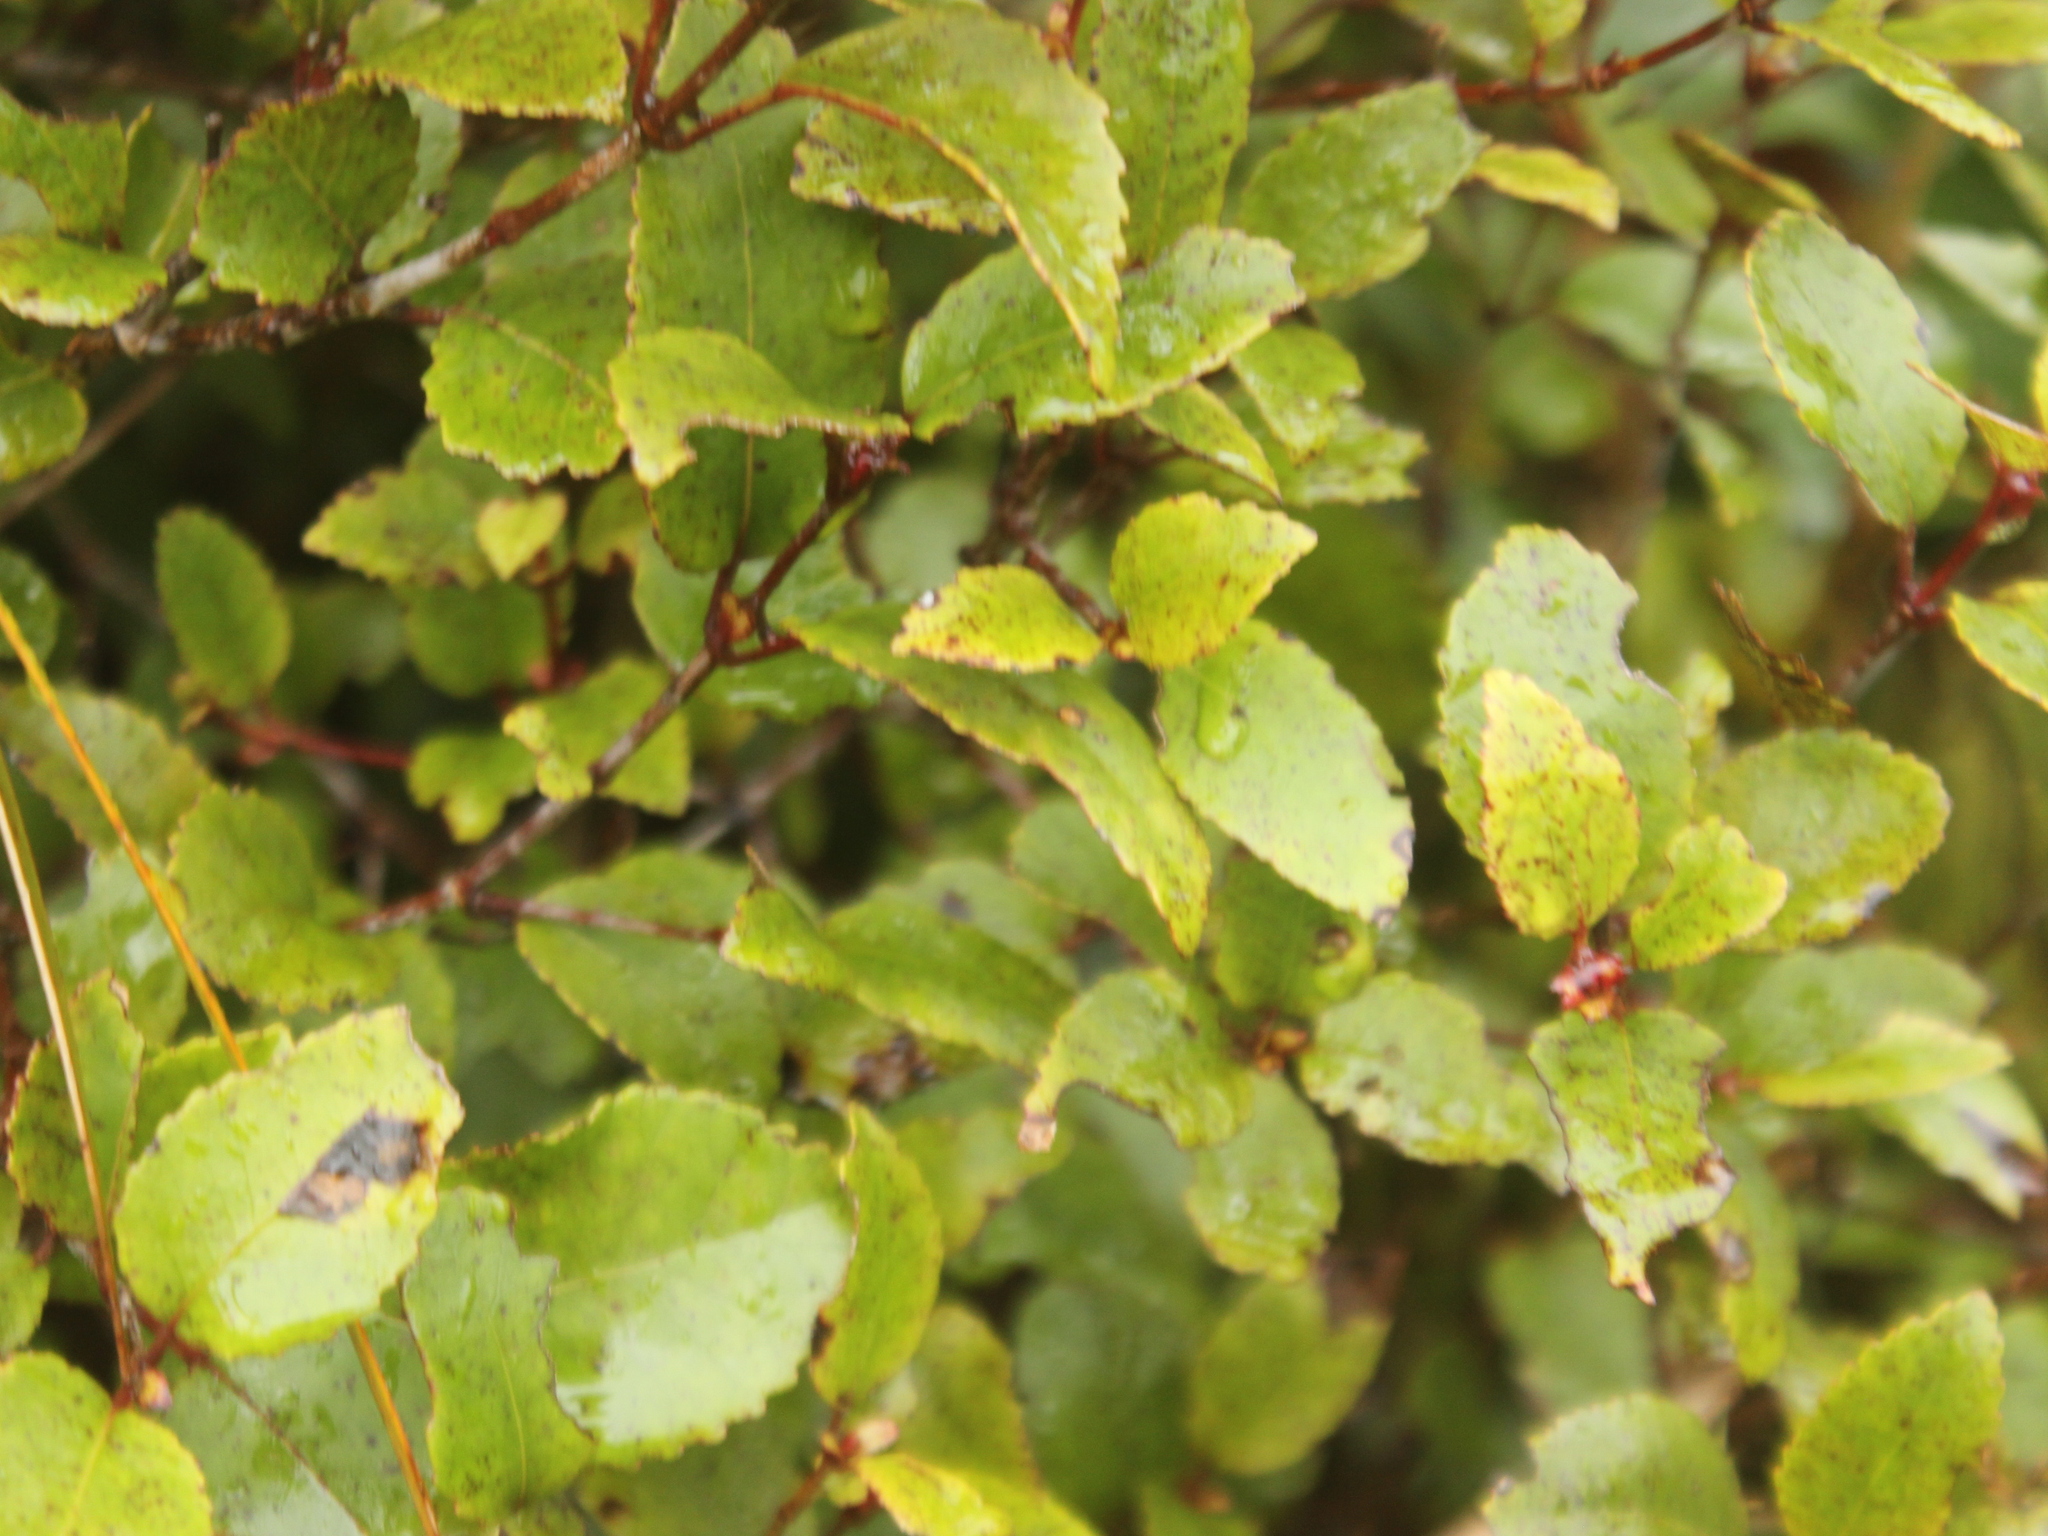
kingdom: Plantae
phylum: Tracheophyta
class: Magnoliopsida
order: Oxalidales
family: Cunoniaceae
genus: Pterophylla
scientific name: Pterophylla racemosa
